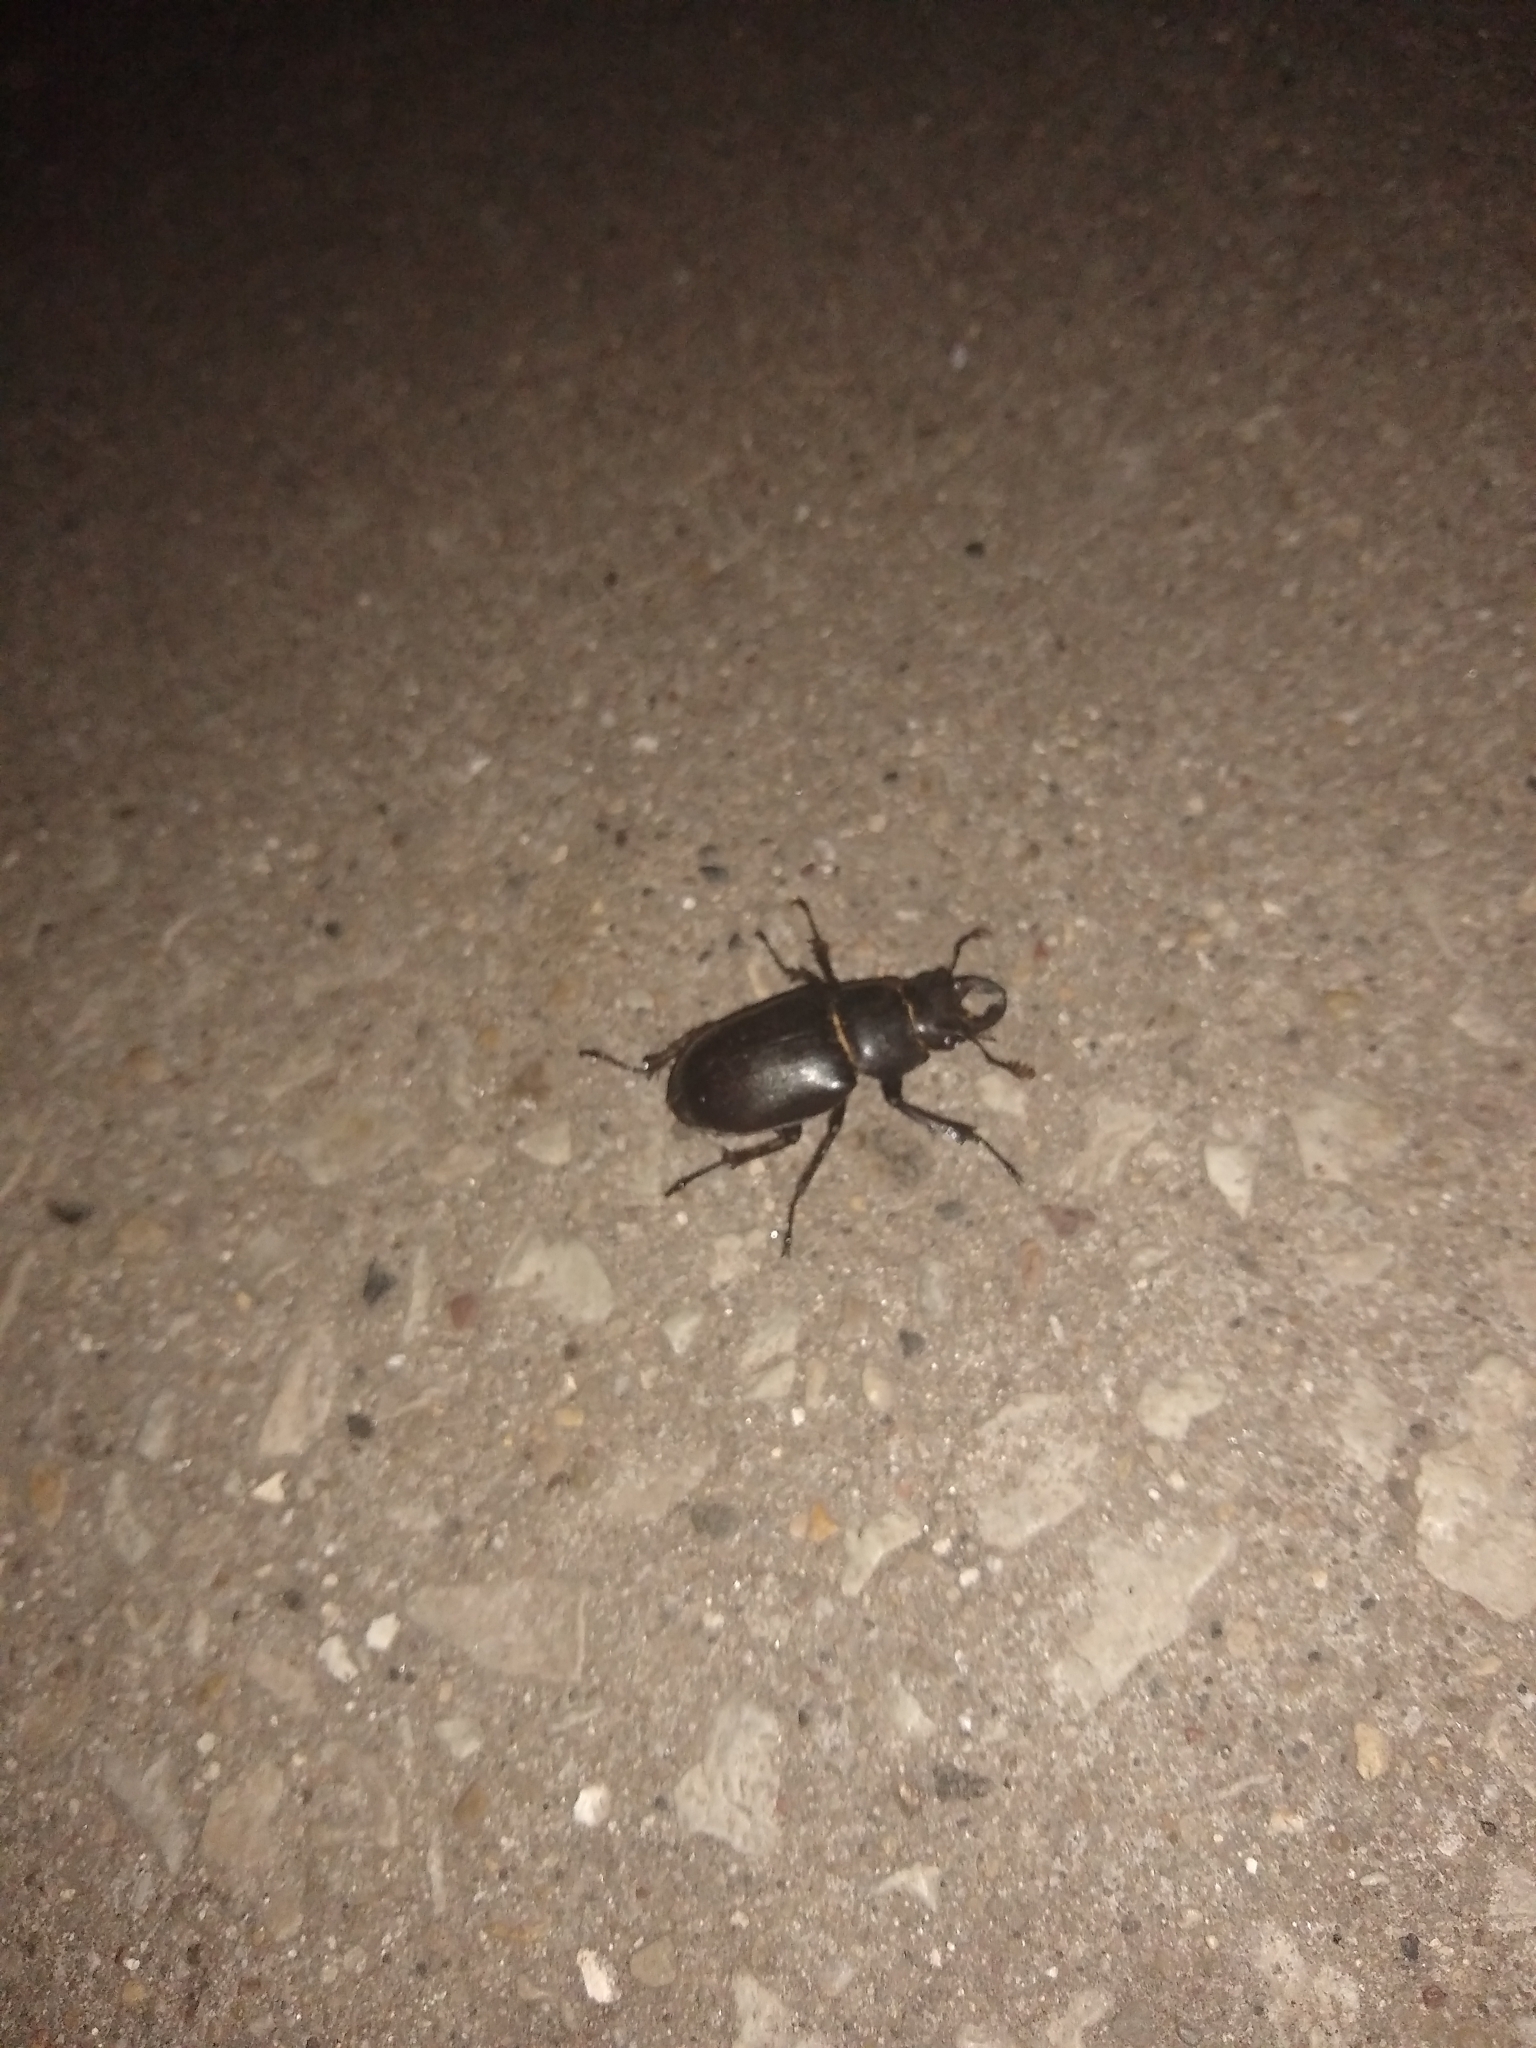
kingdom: Animalia
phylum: Arthropoda
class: Insecta
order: Coleoptera
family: Lucanidae
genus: Lucanus
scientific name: Lucanus placidus
